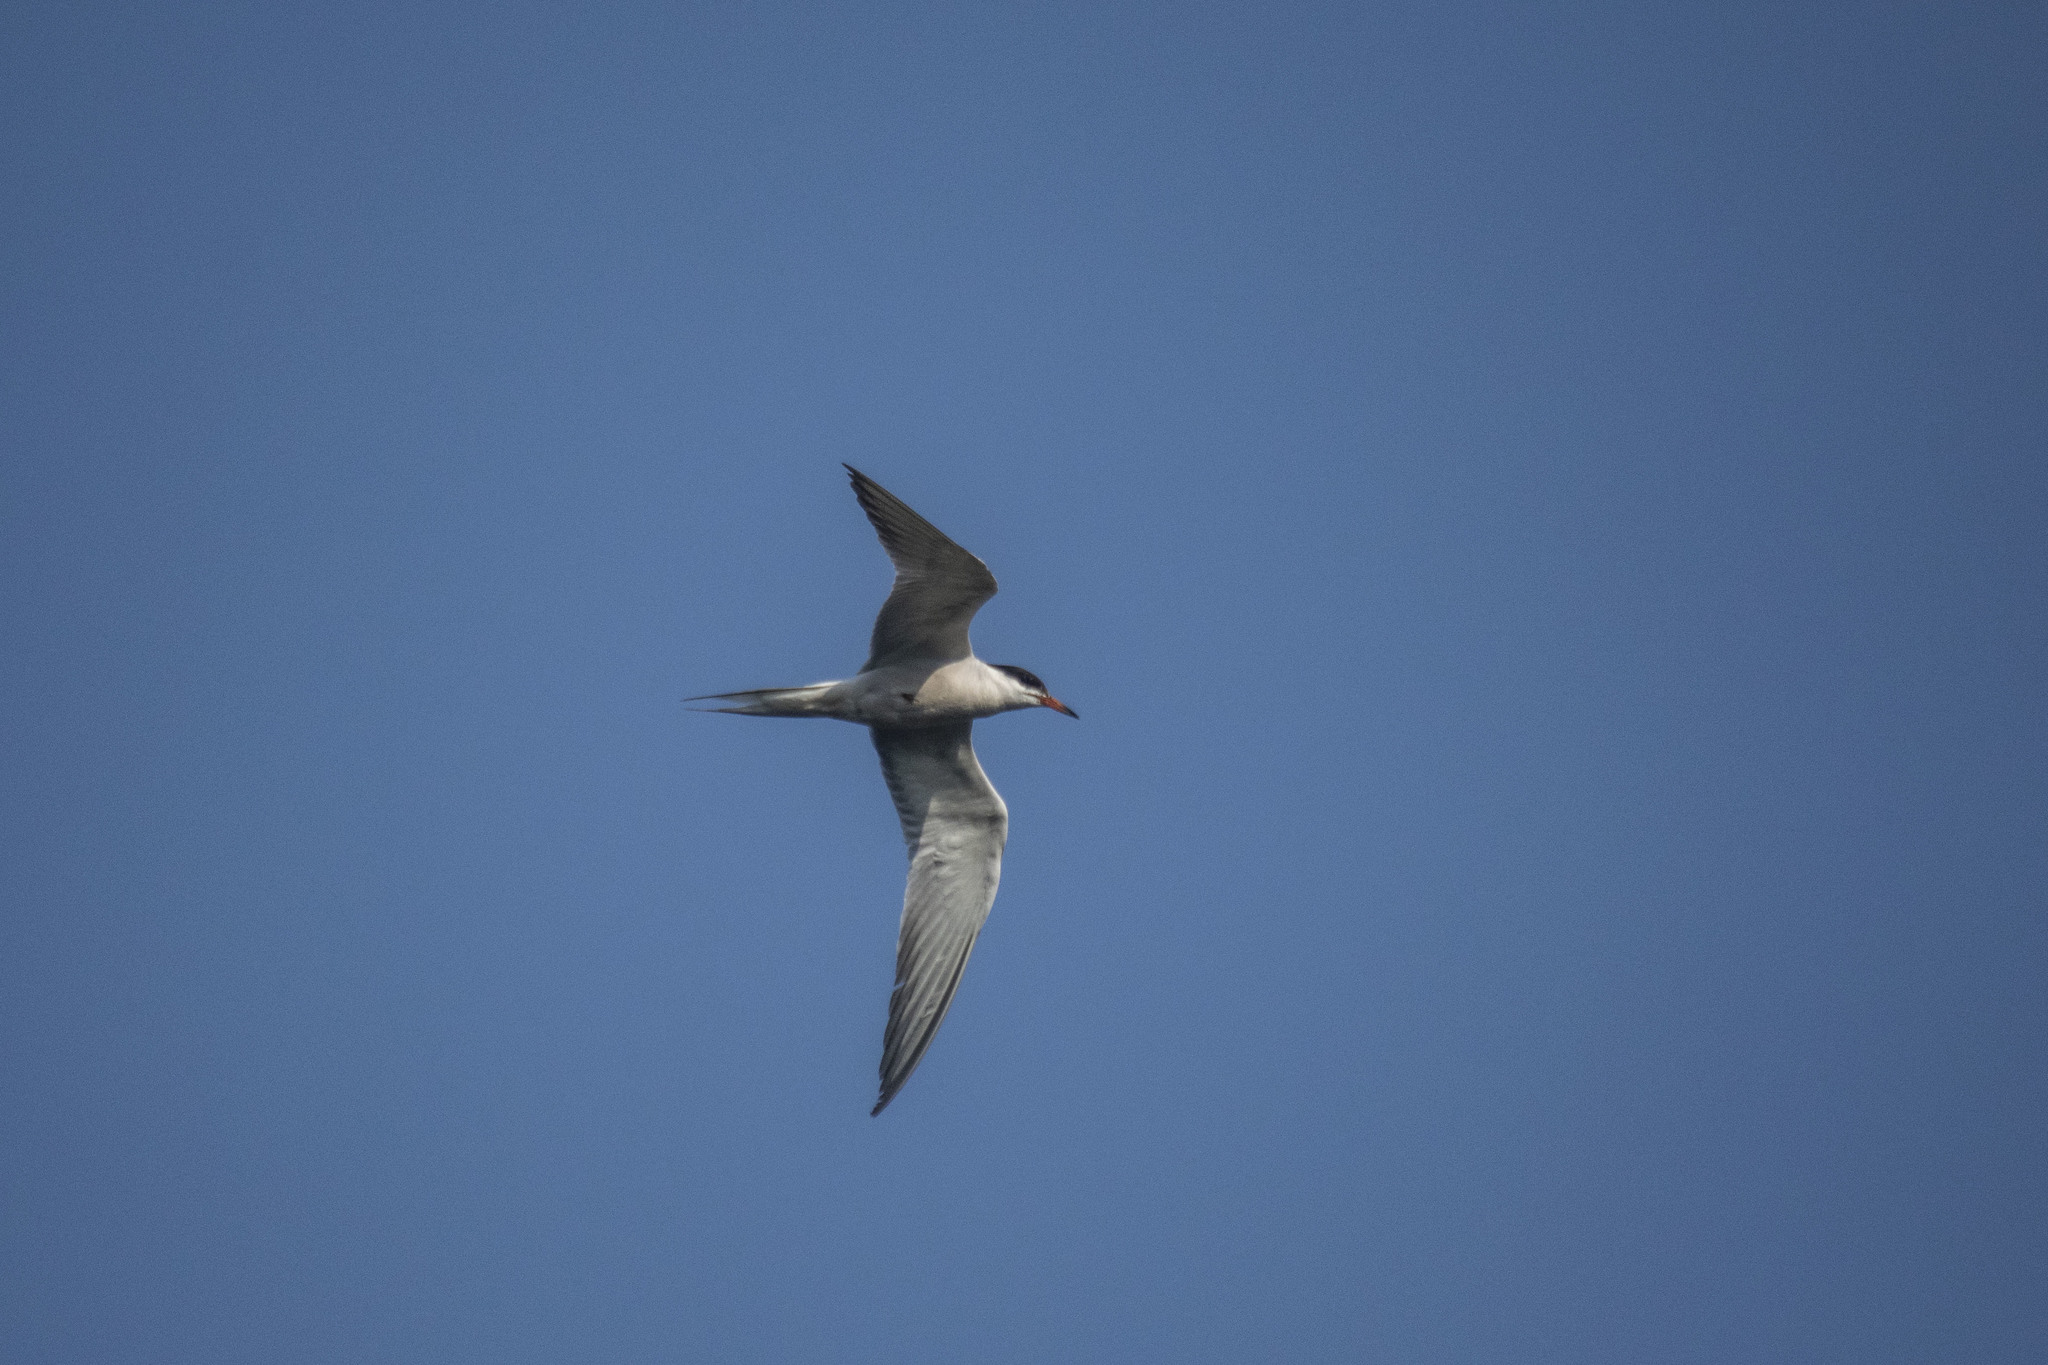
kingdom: Animalia
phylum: Chordata
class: Aves
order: Charadriiformes
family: Laridae
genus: Sterna
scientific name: Sterna hirundo
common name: Common tern
